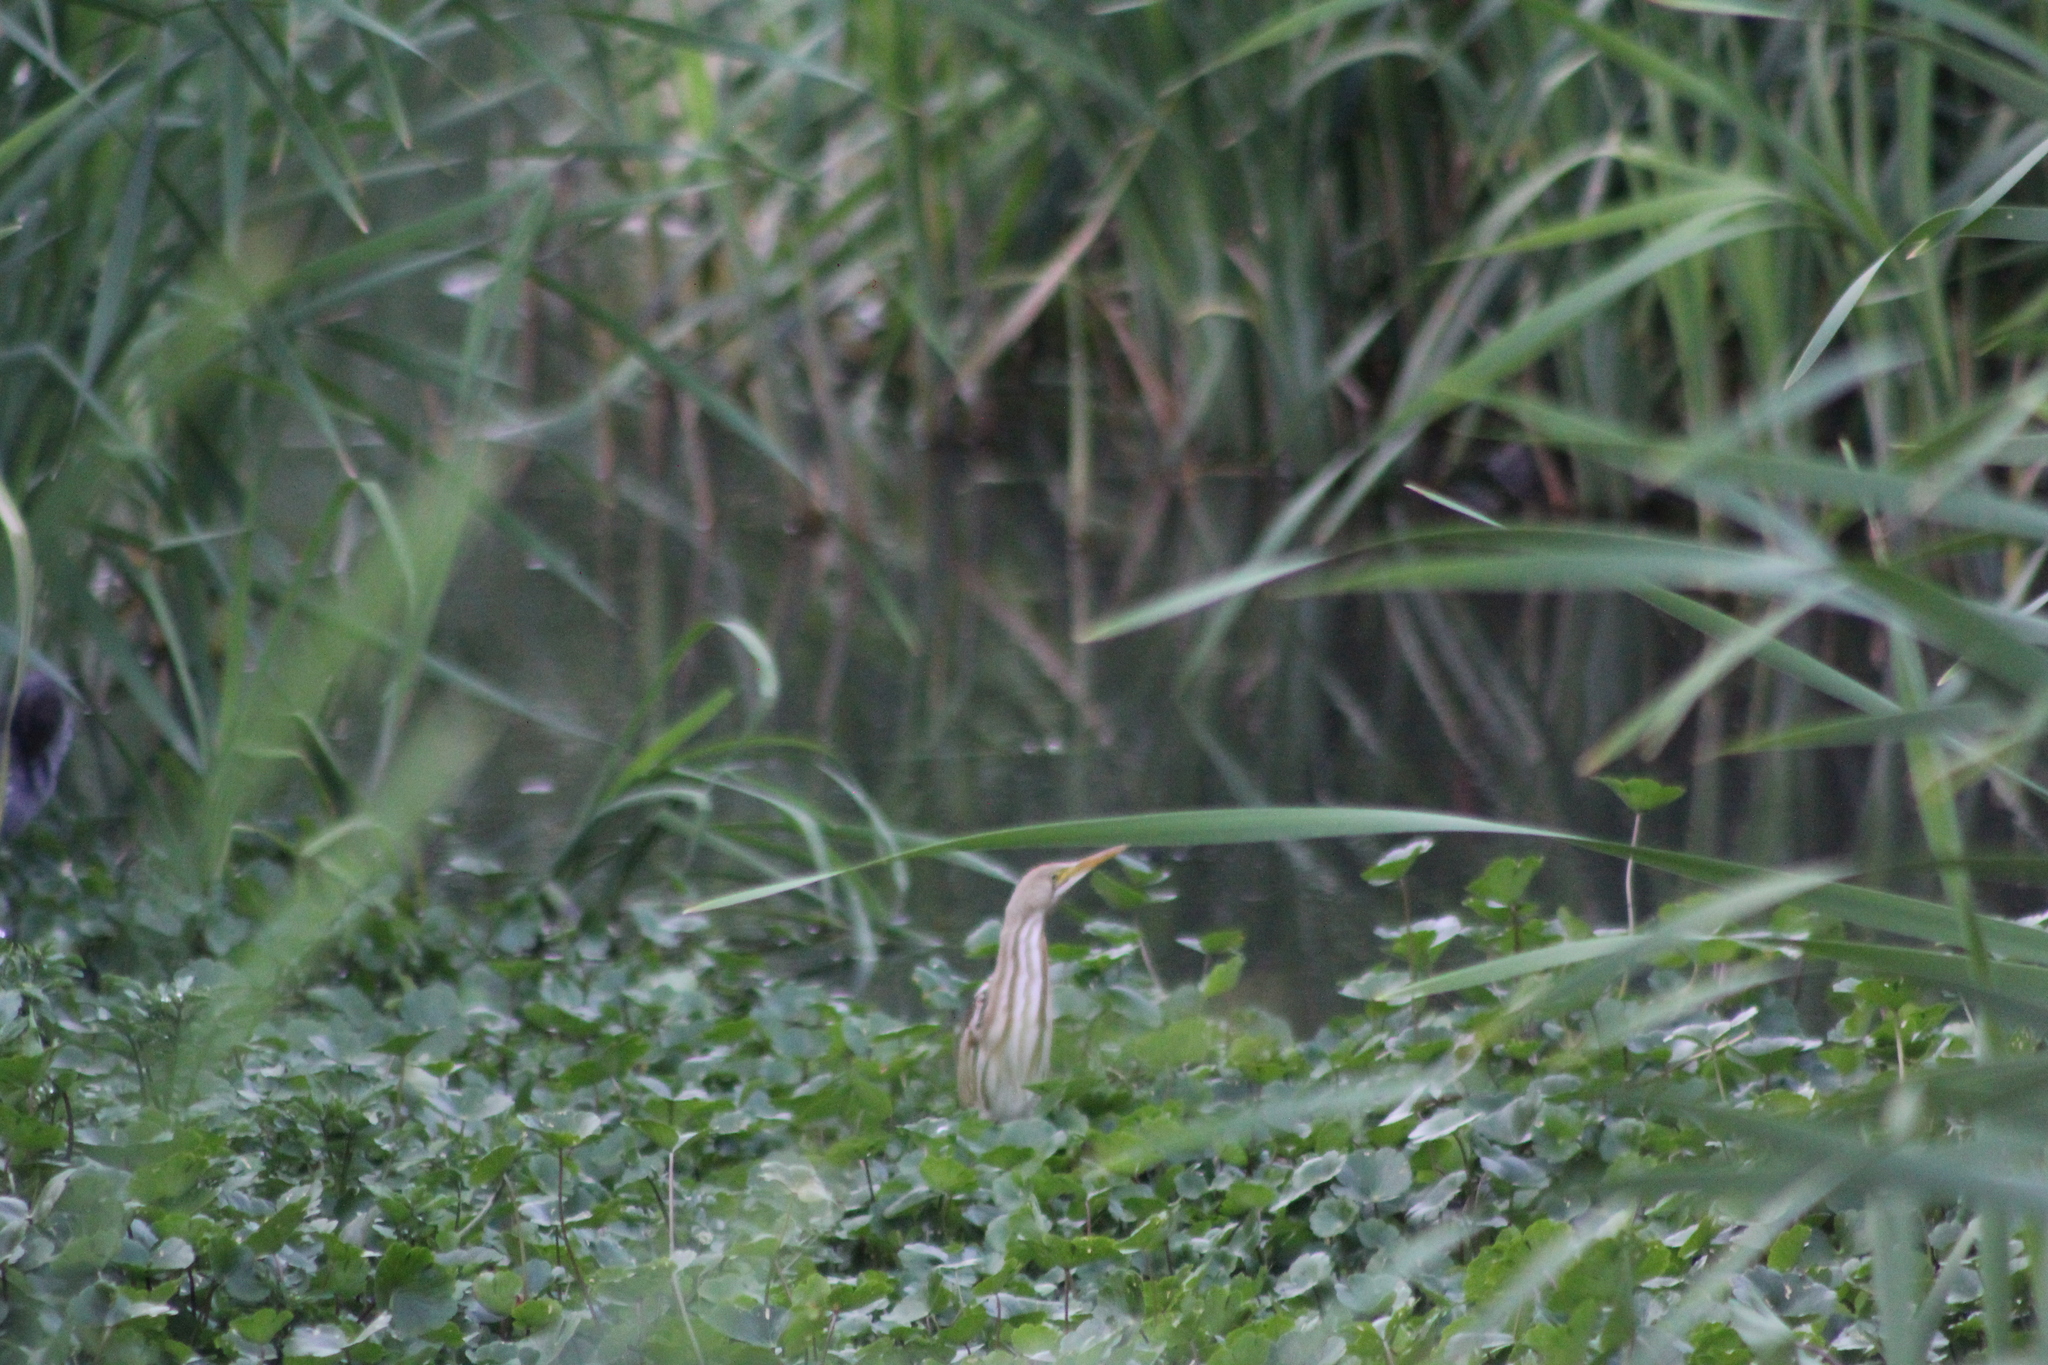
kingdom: Animalia
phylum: Chordata
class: Aves
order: Pelecaniformes
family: Ardeidae
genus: Ixobrychus
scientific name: Ixobrychus involucris
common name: Stripe-backed bittern
